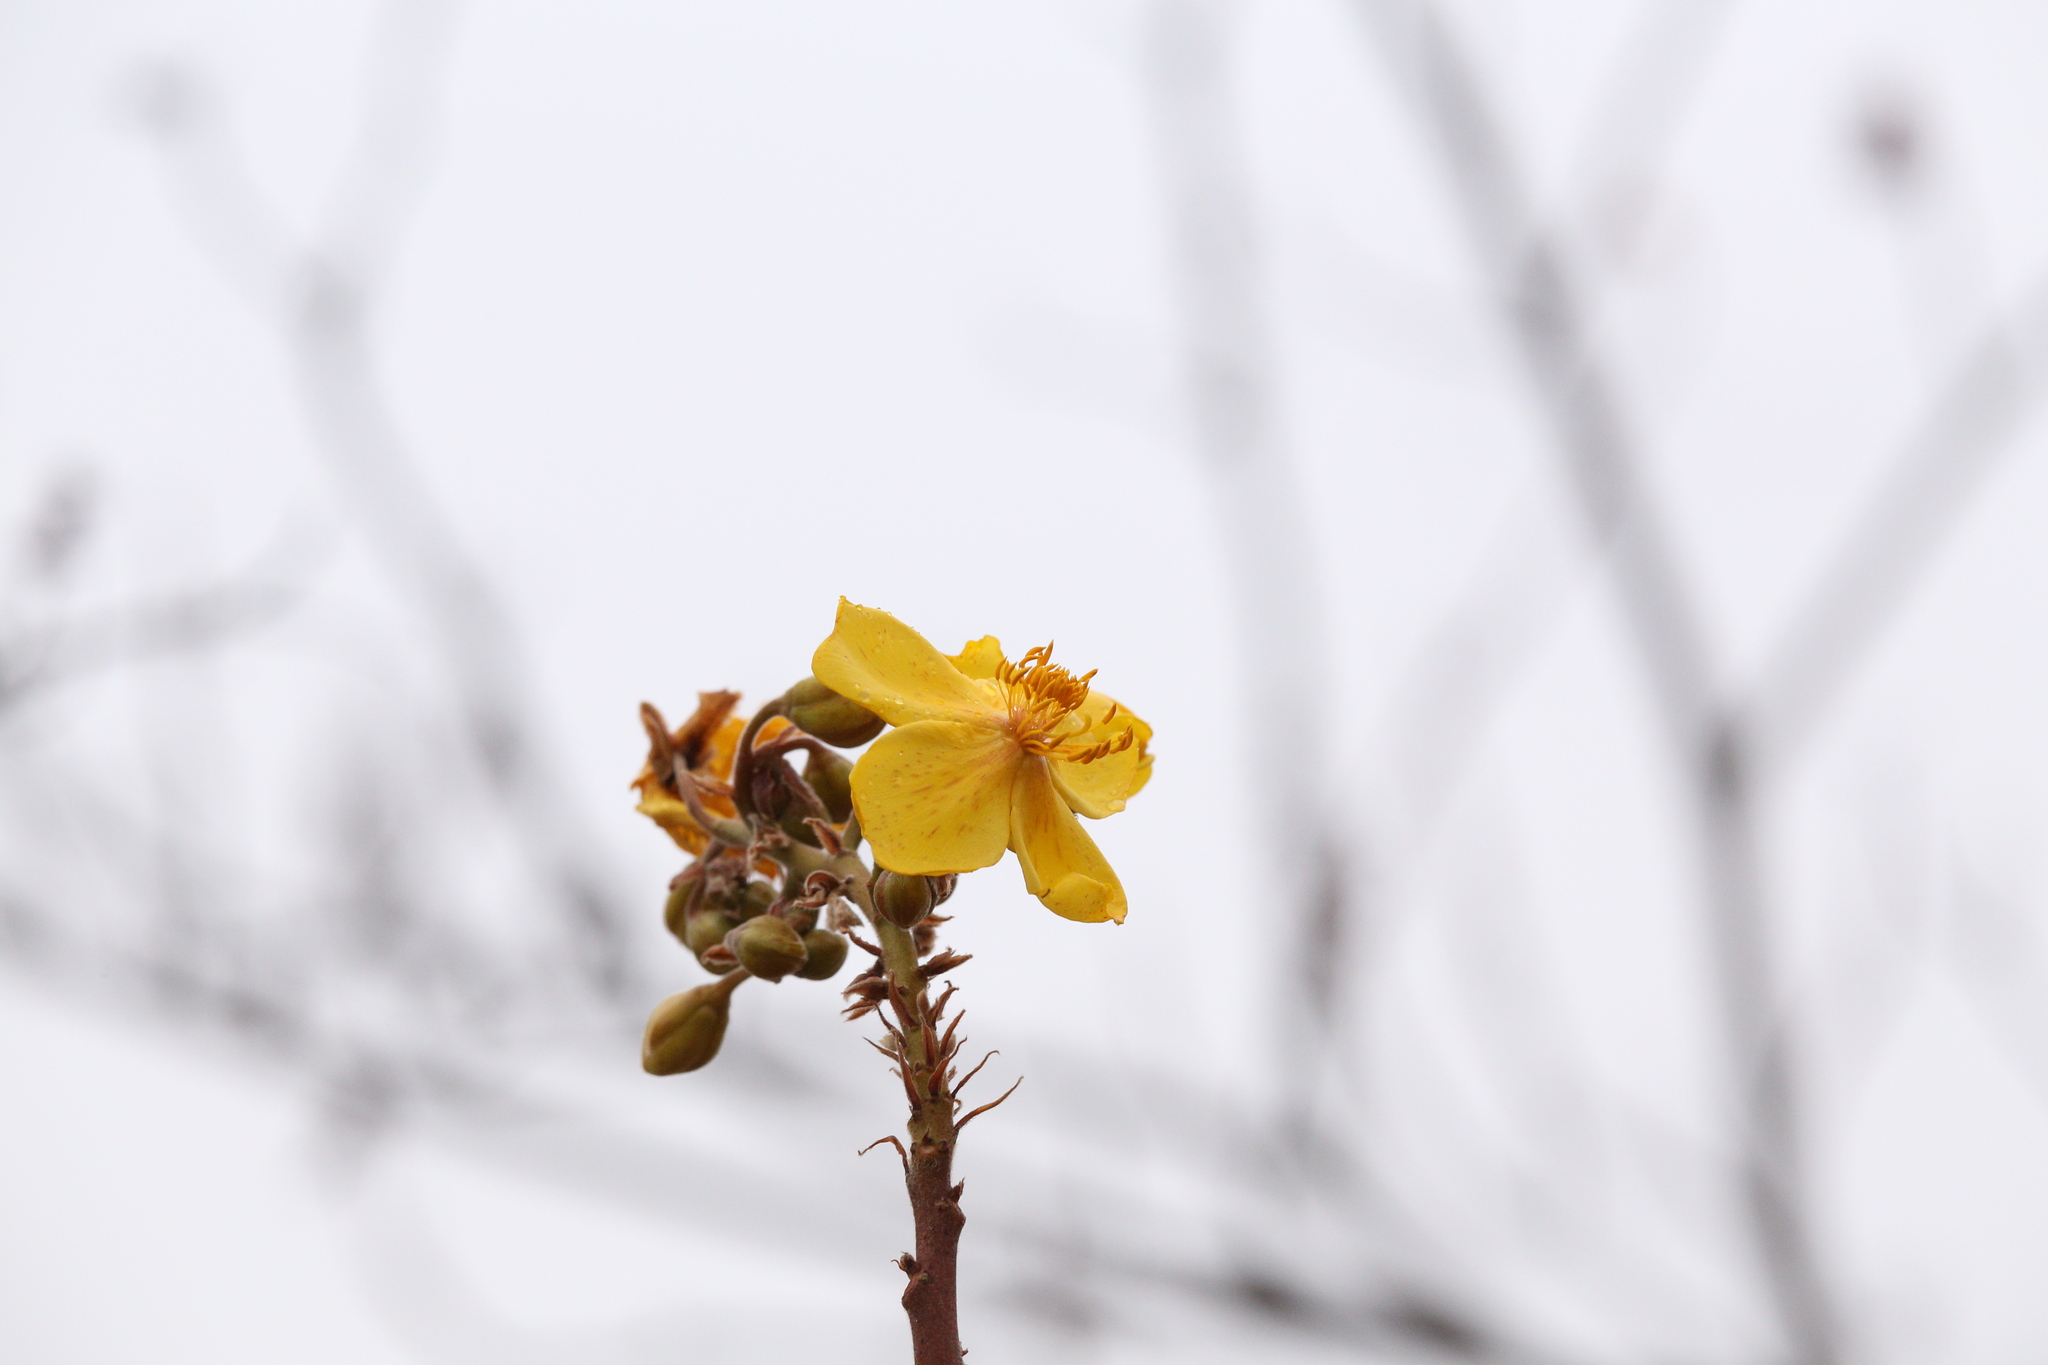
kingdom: Plantae
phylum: Tracheophyta
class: Magnoliopsida
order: Malvales
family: Cochlospermaceae
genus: Cochlospermum
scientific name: Cochlospermum fraseri
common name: Kapokbush
